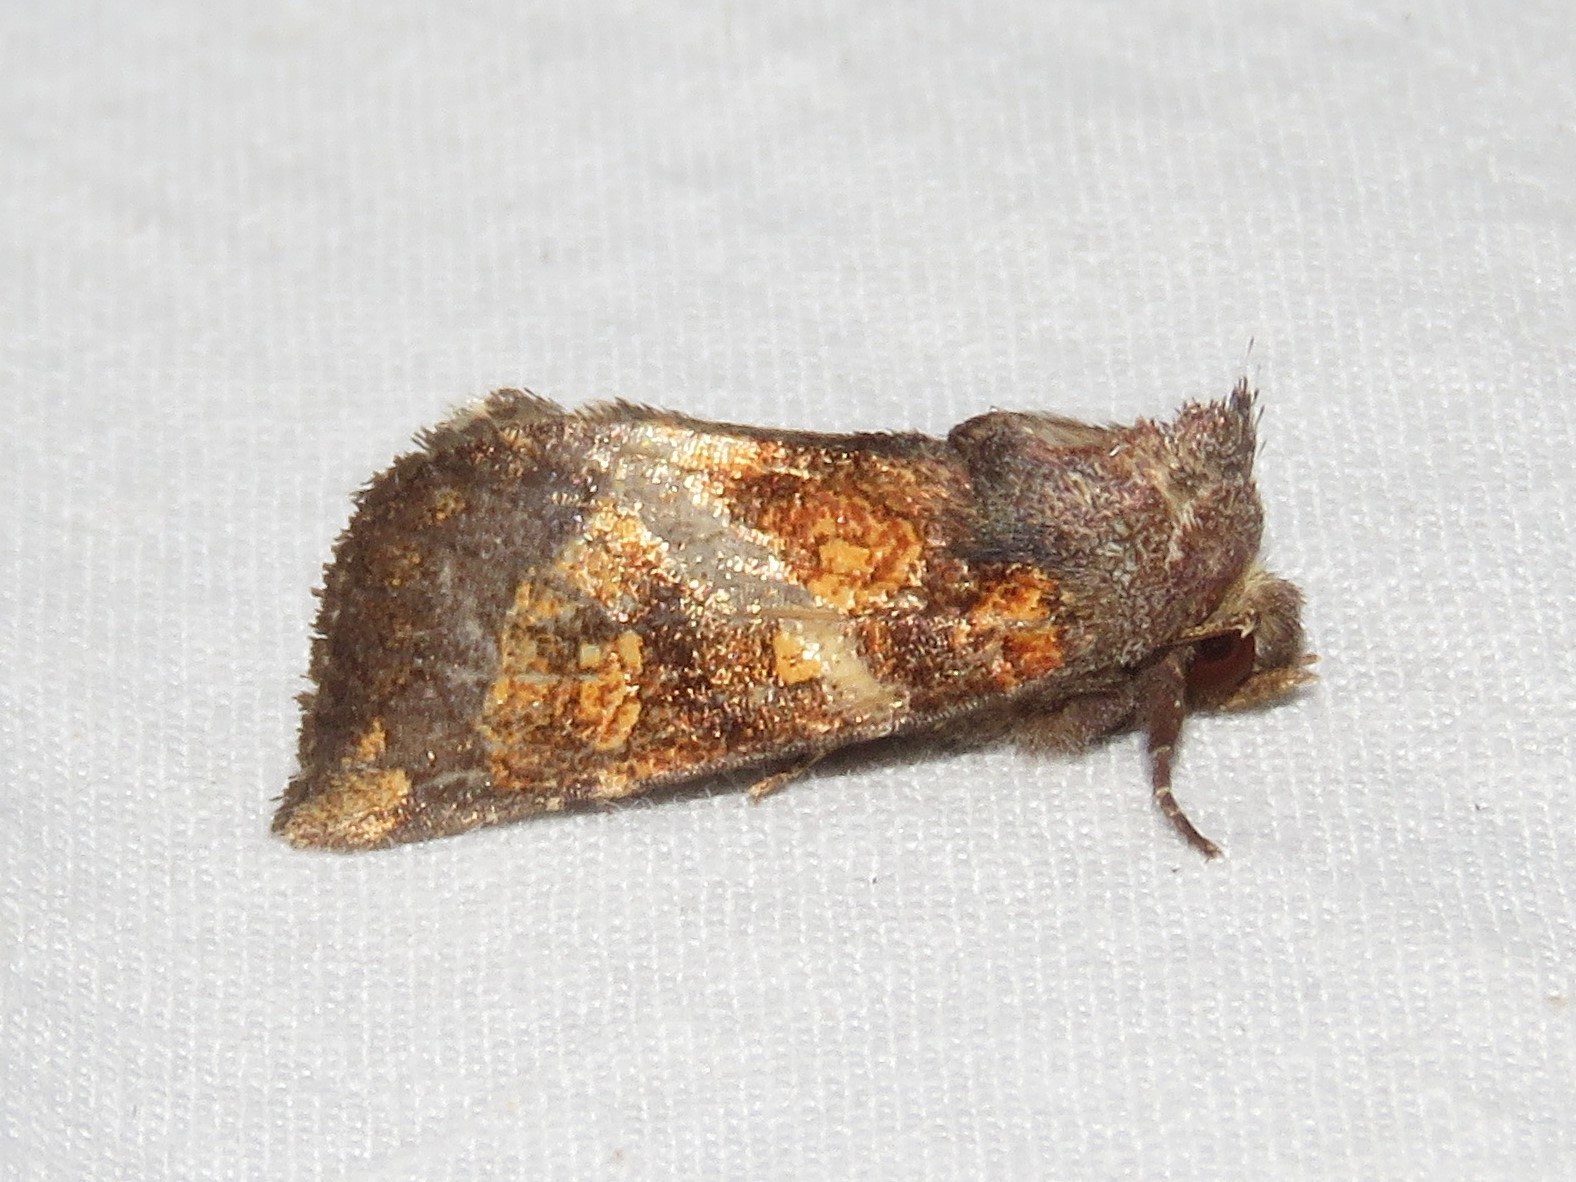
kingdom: Animalia
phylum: Arthropoda
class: Insecta
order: Lepidoptera
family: Noctuidae
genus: Papaipema
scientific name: Papaipema impecuniosa
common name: Aster borer moth
